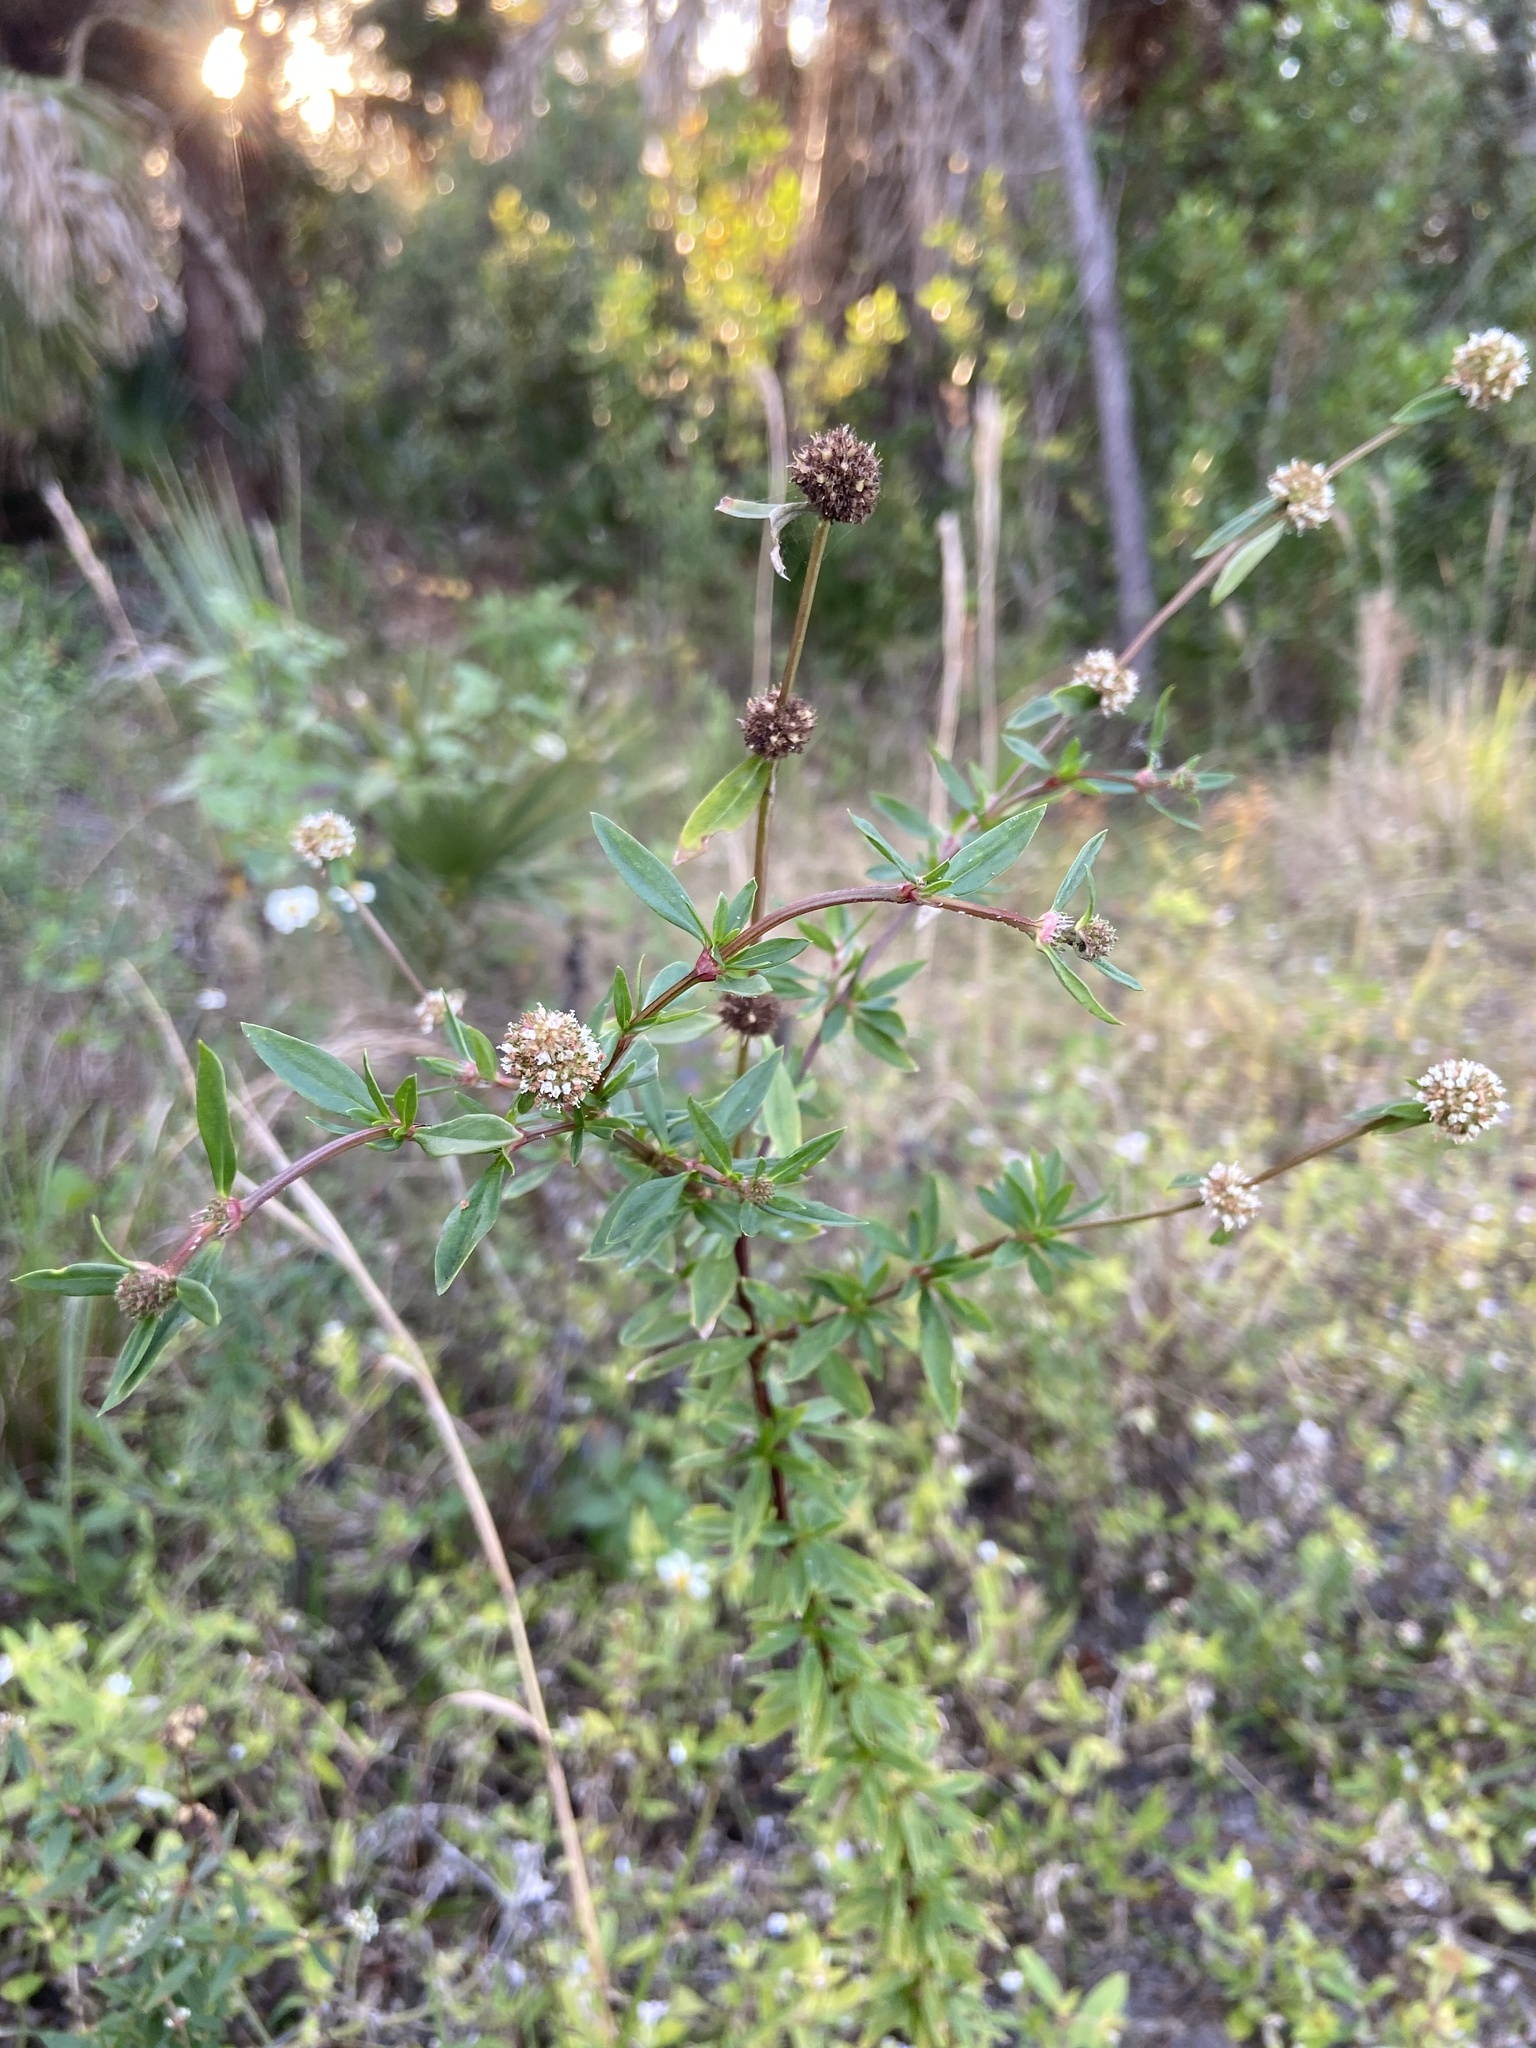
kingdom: Plantae
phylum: Tracheophyta
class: Magnoliopsida
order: Gentianales
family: Rubiaceae
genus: Spermacoce
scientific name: Spermacoce verticillata
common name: Shrubby false buttonweed
